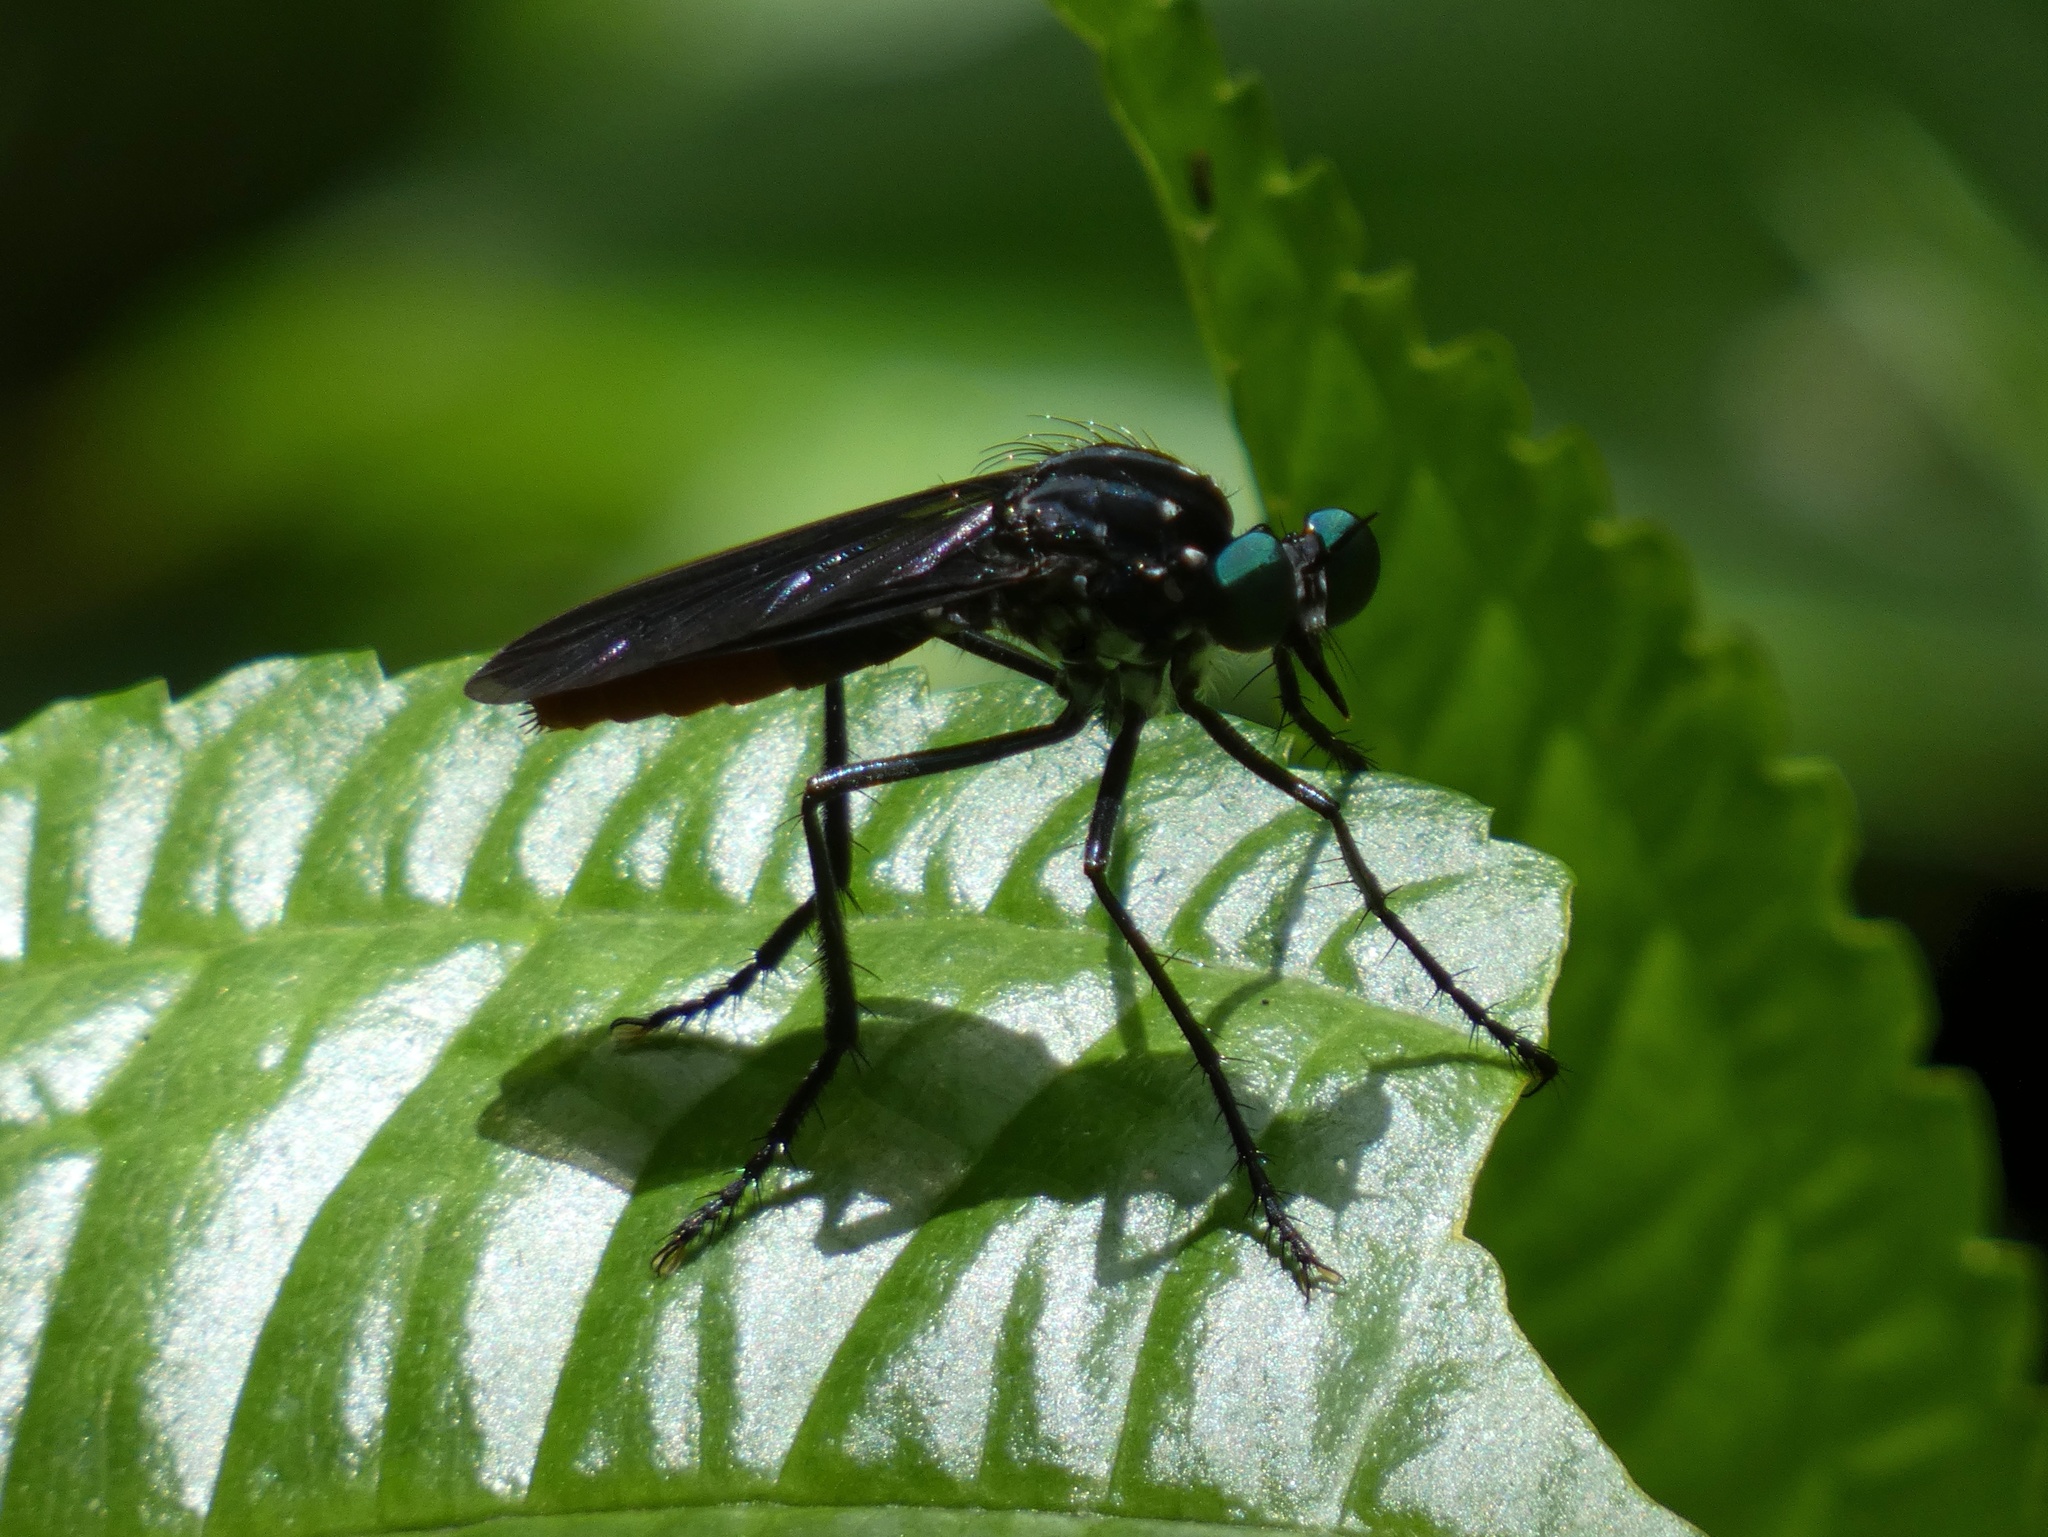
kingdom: Animalia
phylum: Arthropoda
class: Insecta
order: Diptera
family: Asilidae
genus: Archilestris
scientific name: Archilestris excellens
